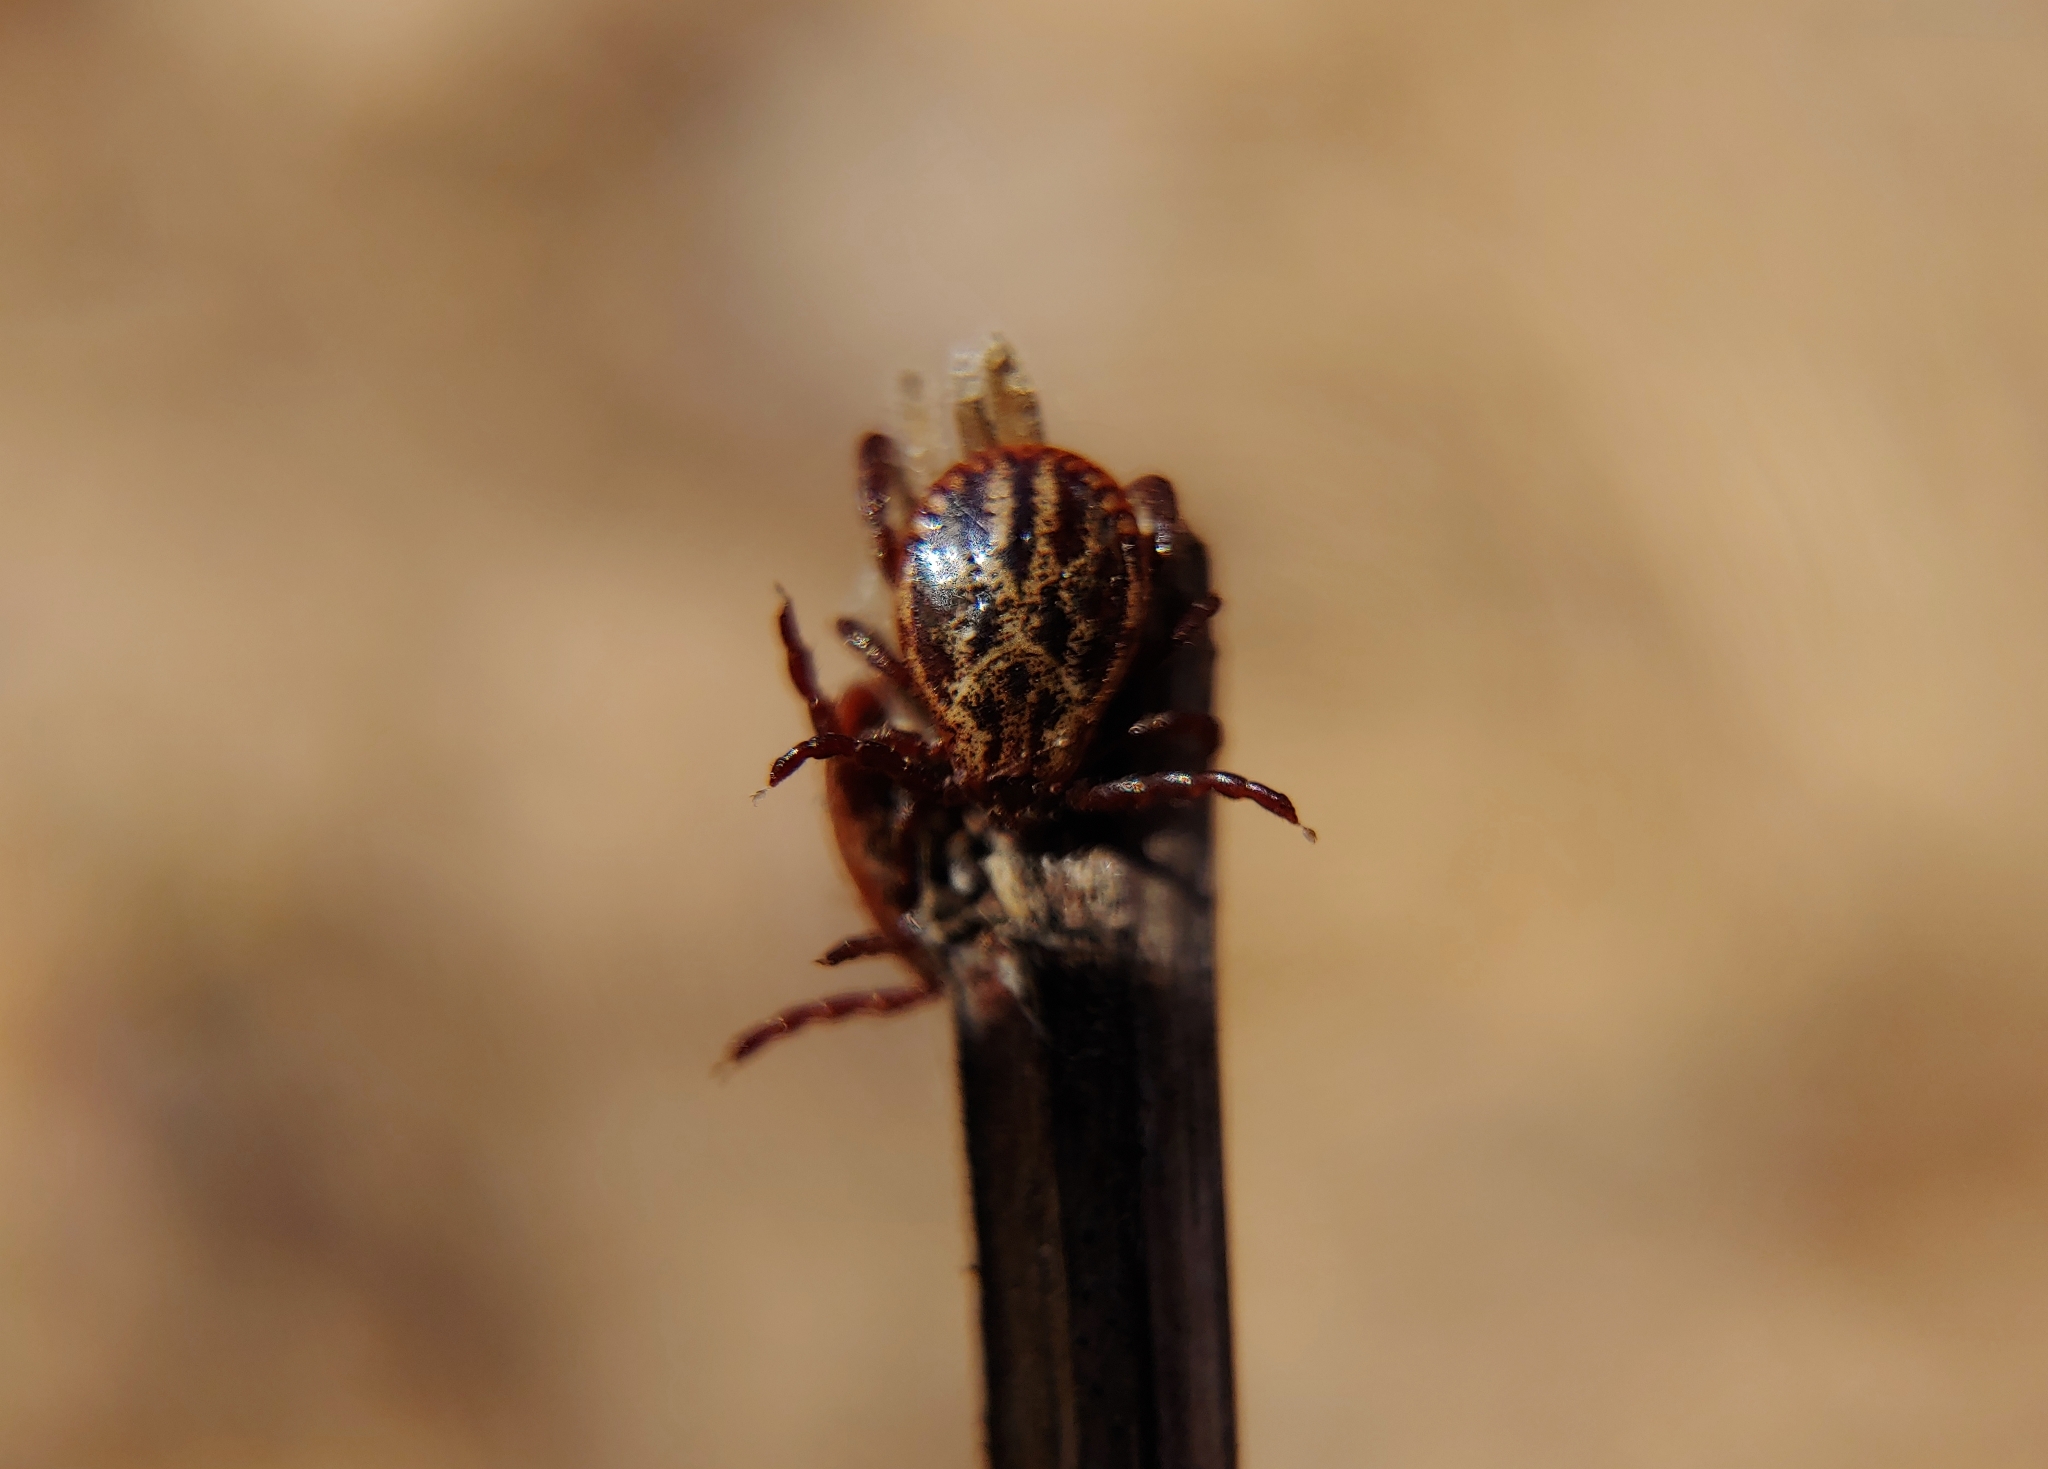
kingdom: Animalia
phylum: Arthropoda
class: Arachnida
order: Ixodida
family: Ixodidae
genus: Dermacentor
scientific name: Dermacentor
